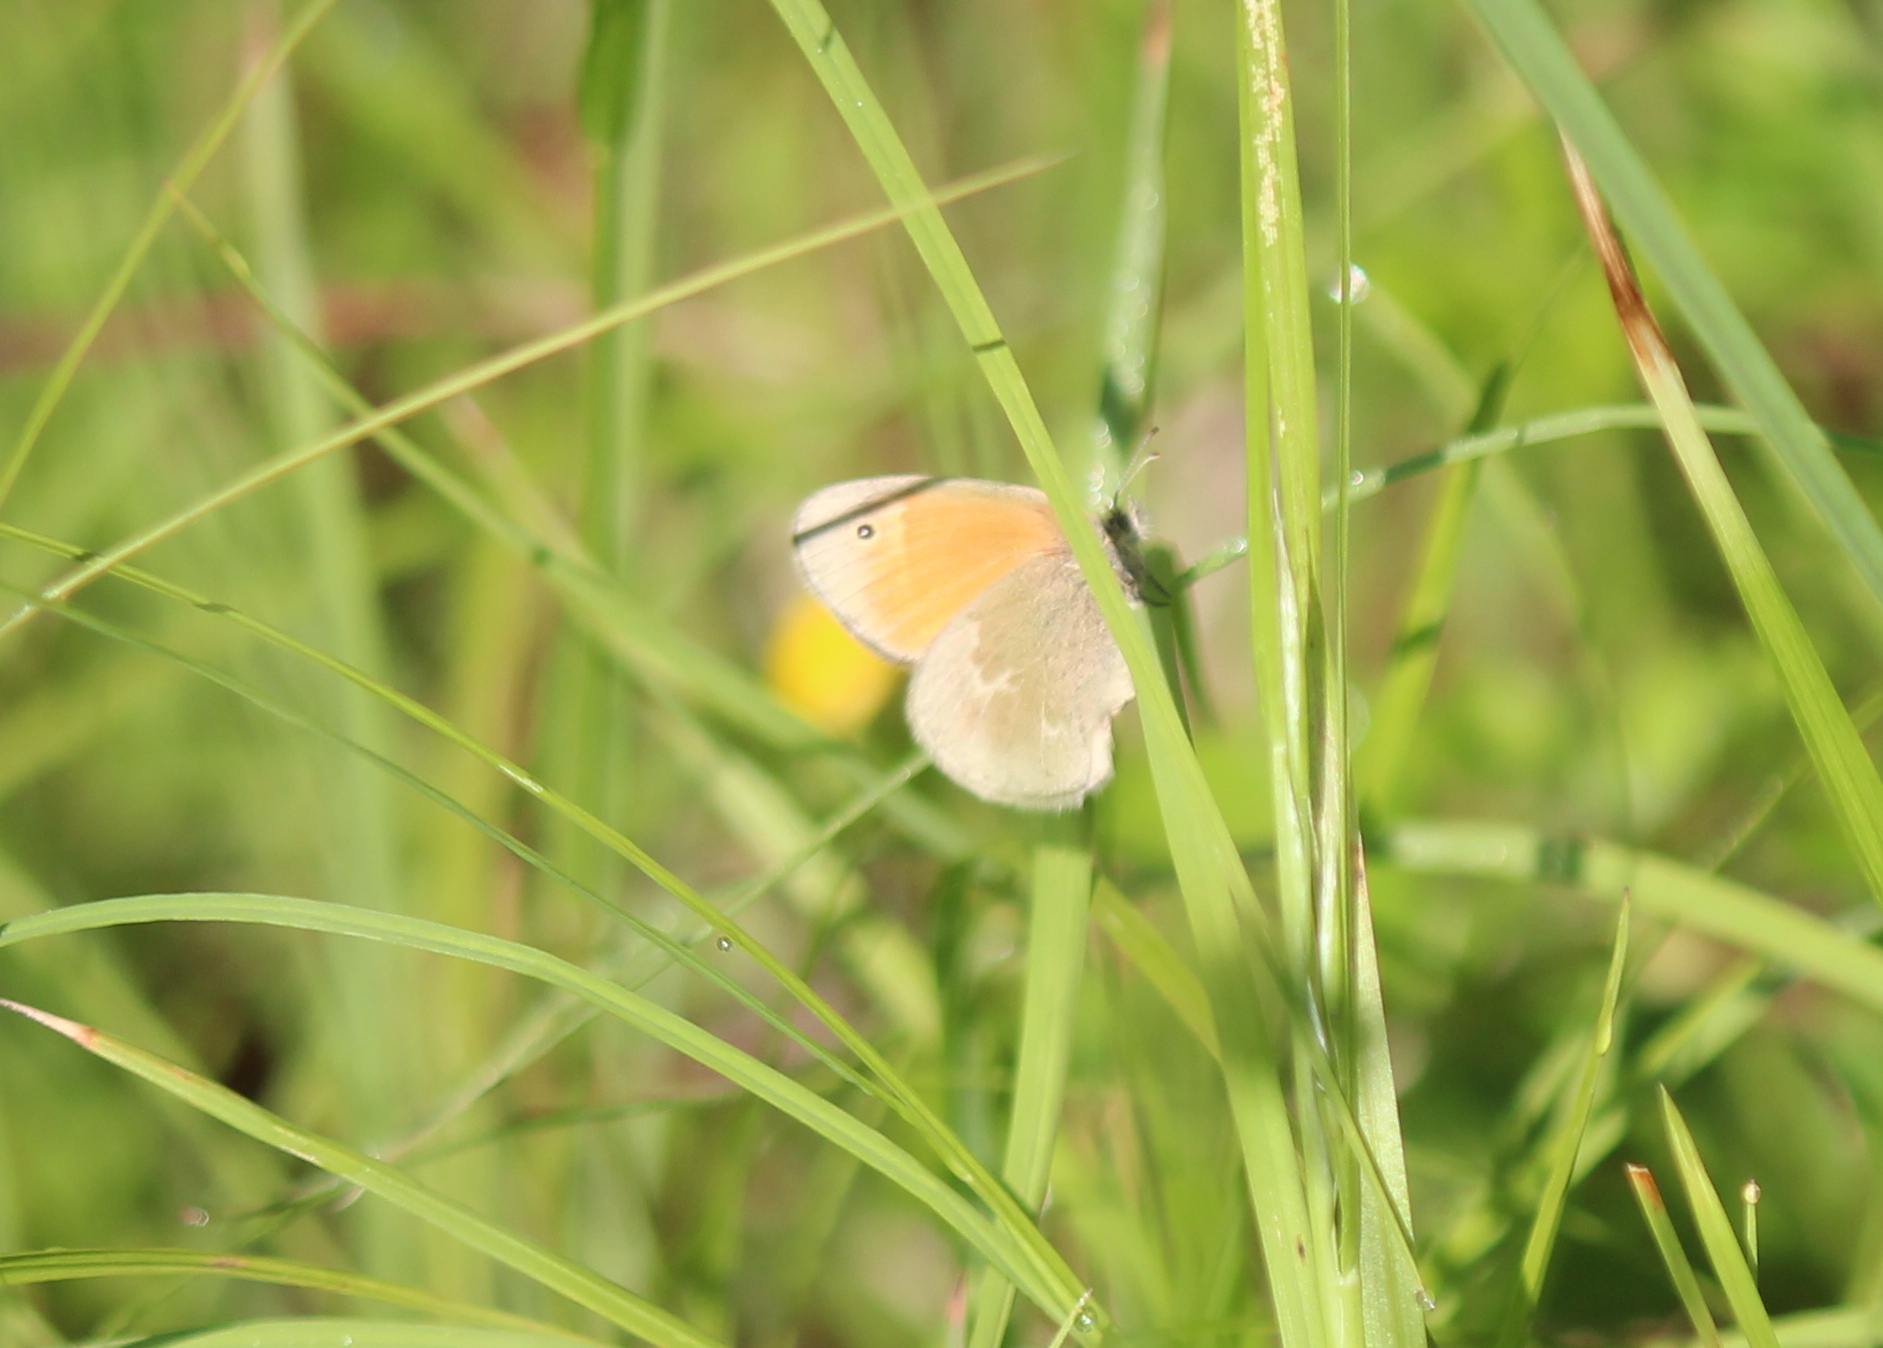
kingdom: Animalia
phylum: Arthropoda
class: Insecta
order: Lepidoptera
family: Nymphalidae
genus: Coenonympha
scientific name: Coenonympha california
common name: Common ringlet
